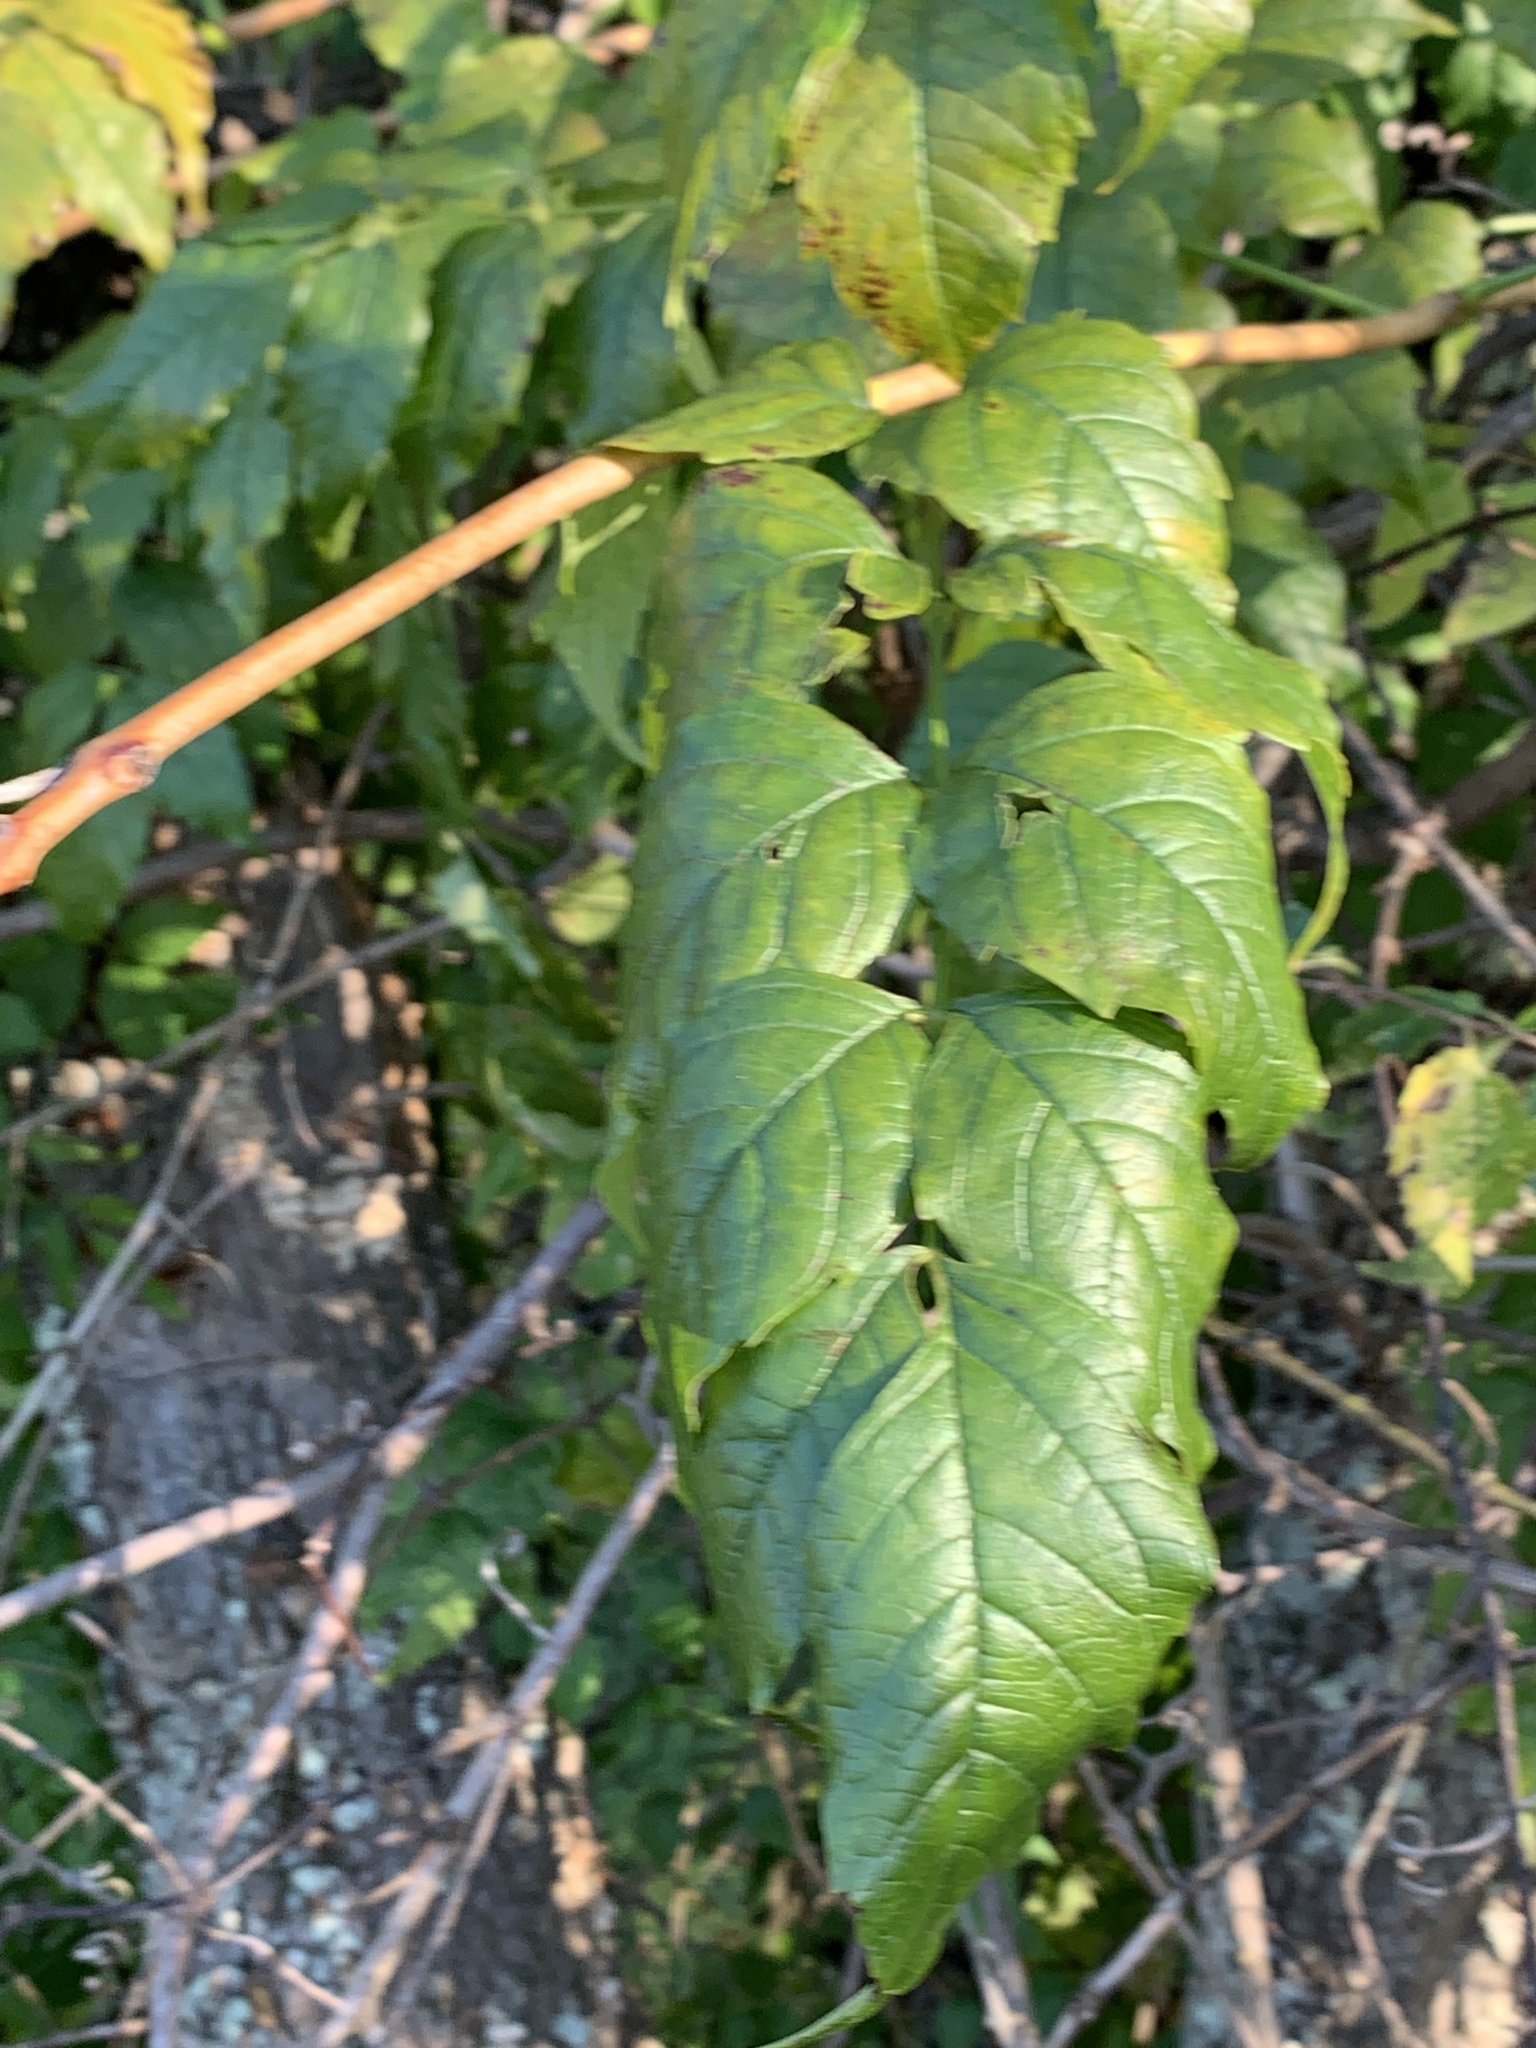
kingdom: Plantae
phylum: Tracheophyta
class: Magnoliopsida
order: Lamiales
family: Bignoniaceae
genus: Campsis
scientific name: Campsis radicans
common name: Trumpet-creeper
